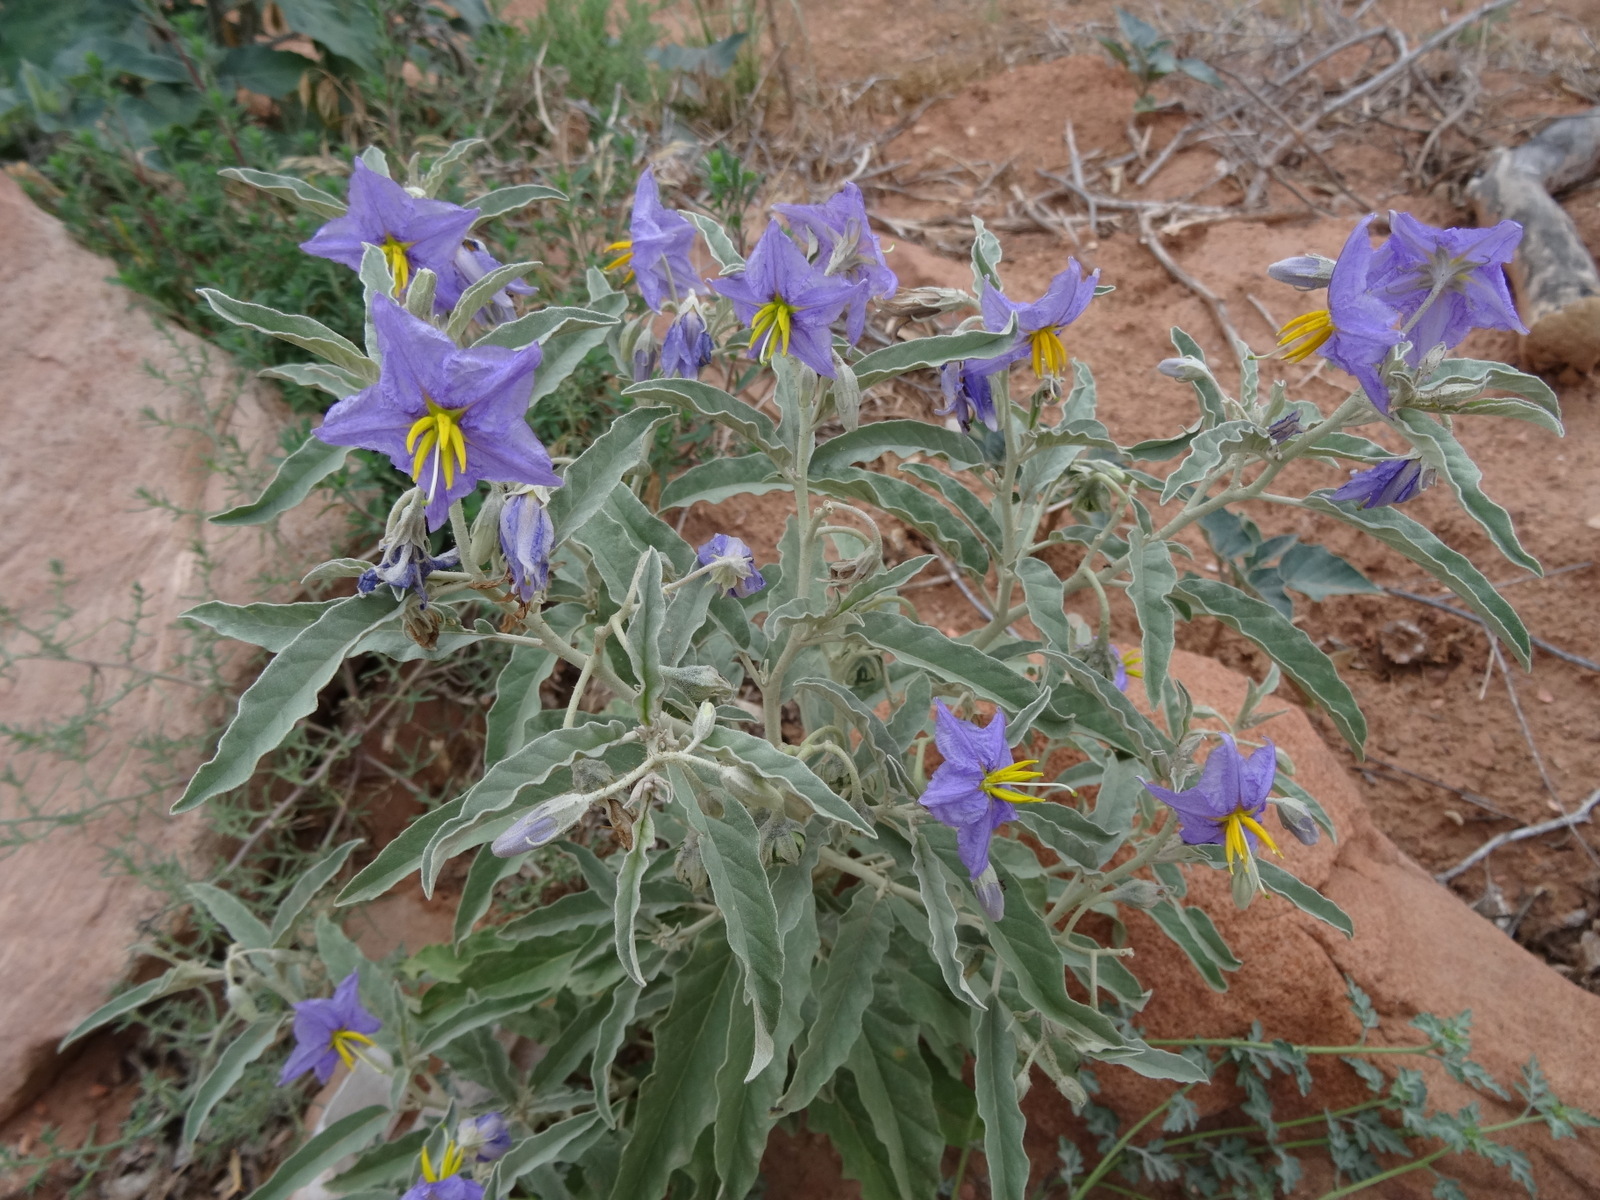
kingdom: Plantae
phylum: Tracheophyta
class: Magnoliopsida
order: Solanales
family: Solanaceae
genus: Solanum
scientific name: Solanum elaeagnifolium
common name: Silverleaf nightshade
